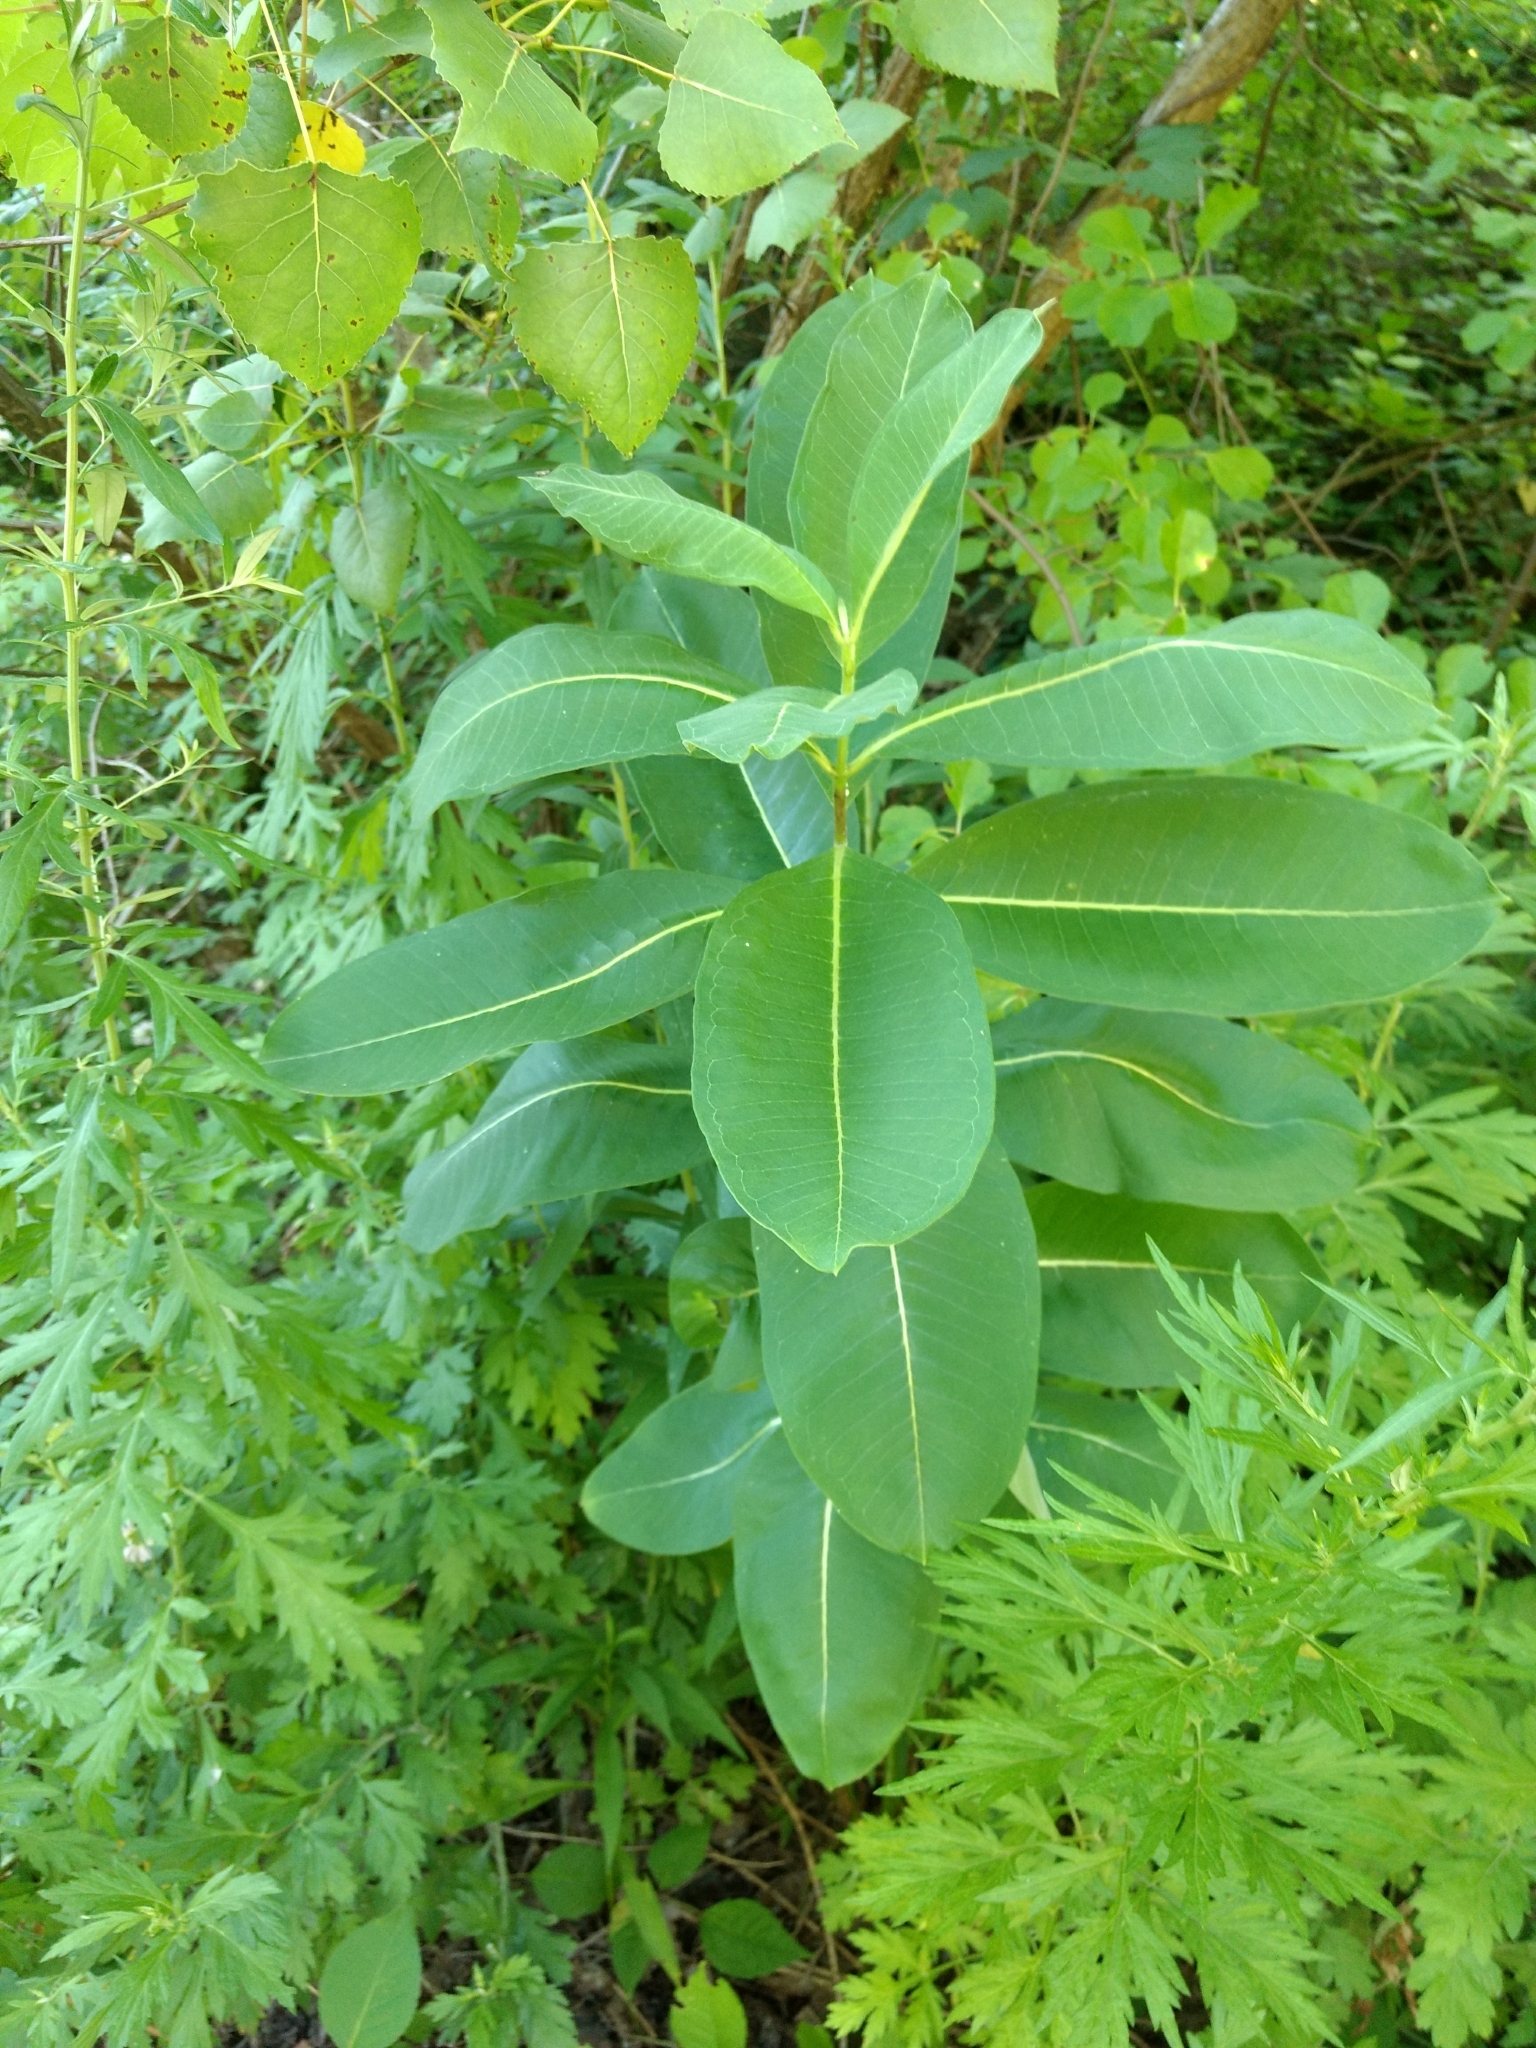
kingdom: Plantae
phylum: Tracheophyta
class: Magnoliopsida
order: Gentianales
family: Apocynaceae
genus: Asclepias
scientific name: Asclepias syriaca
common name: Common milkweed
